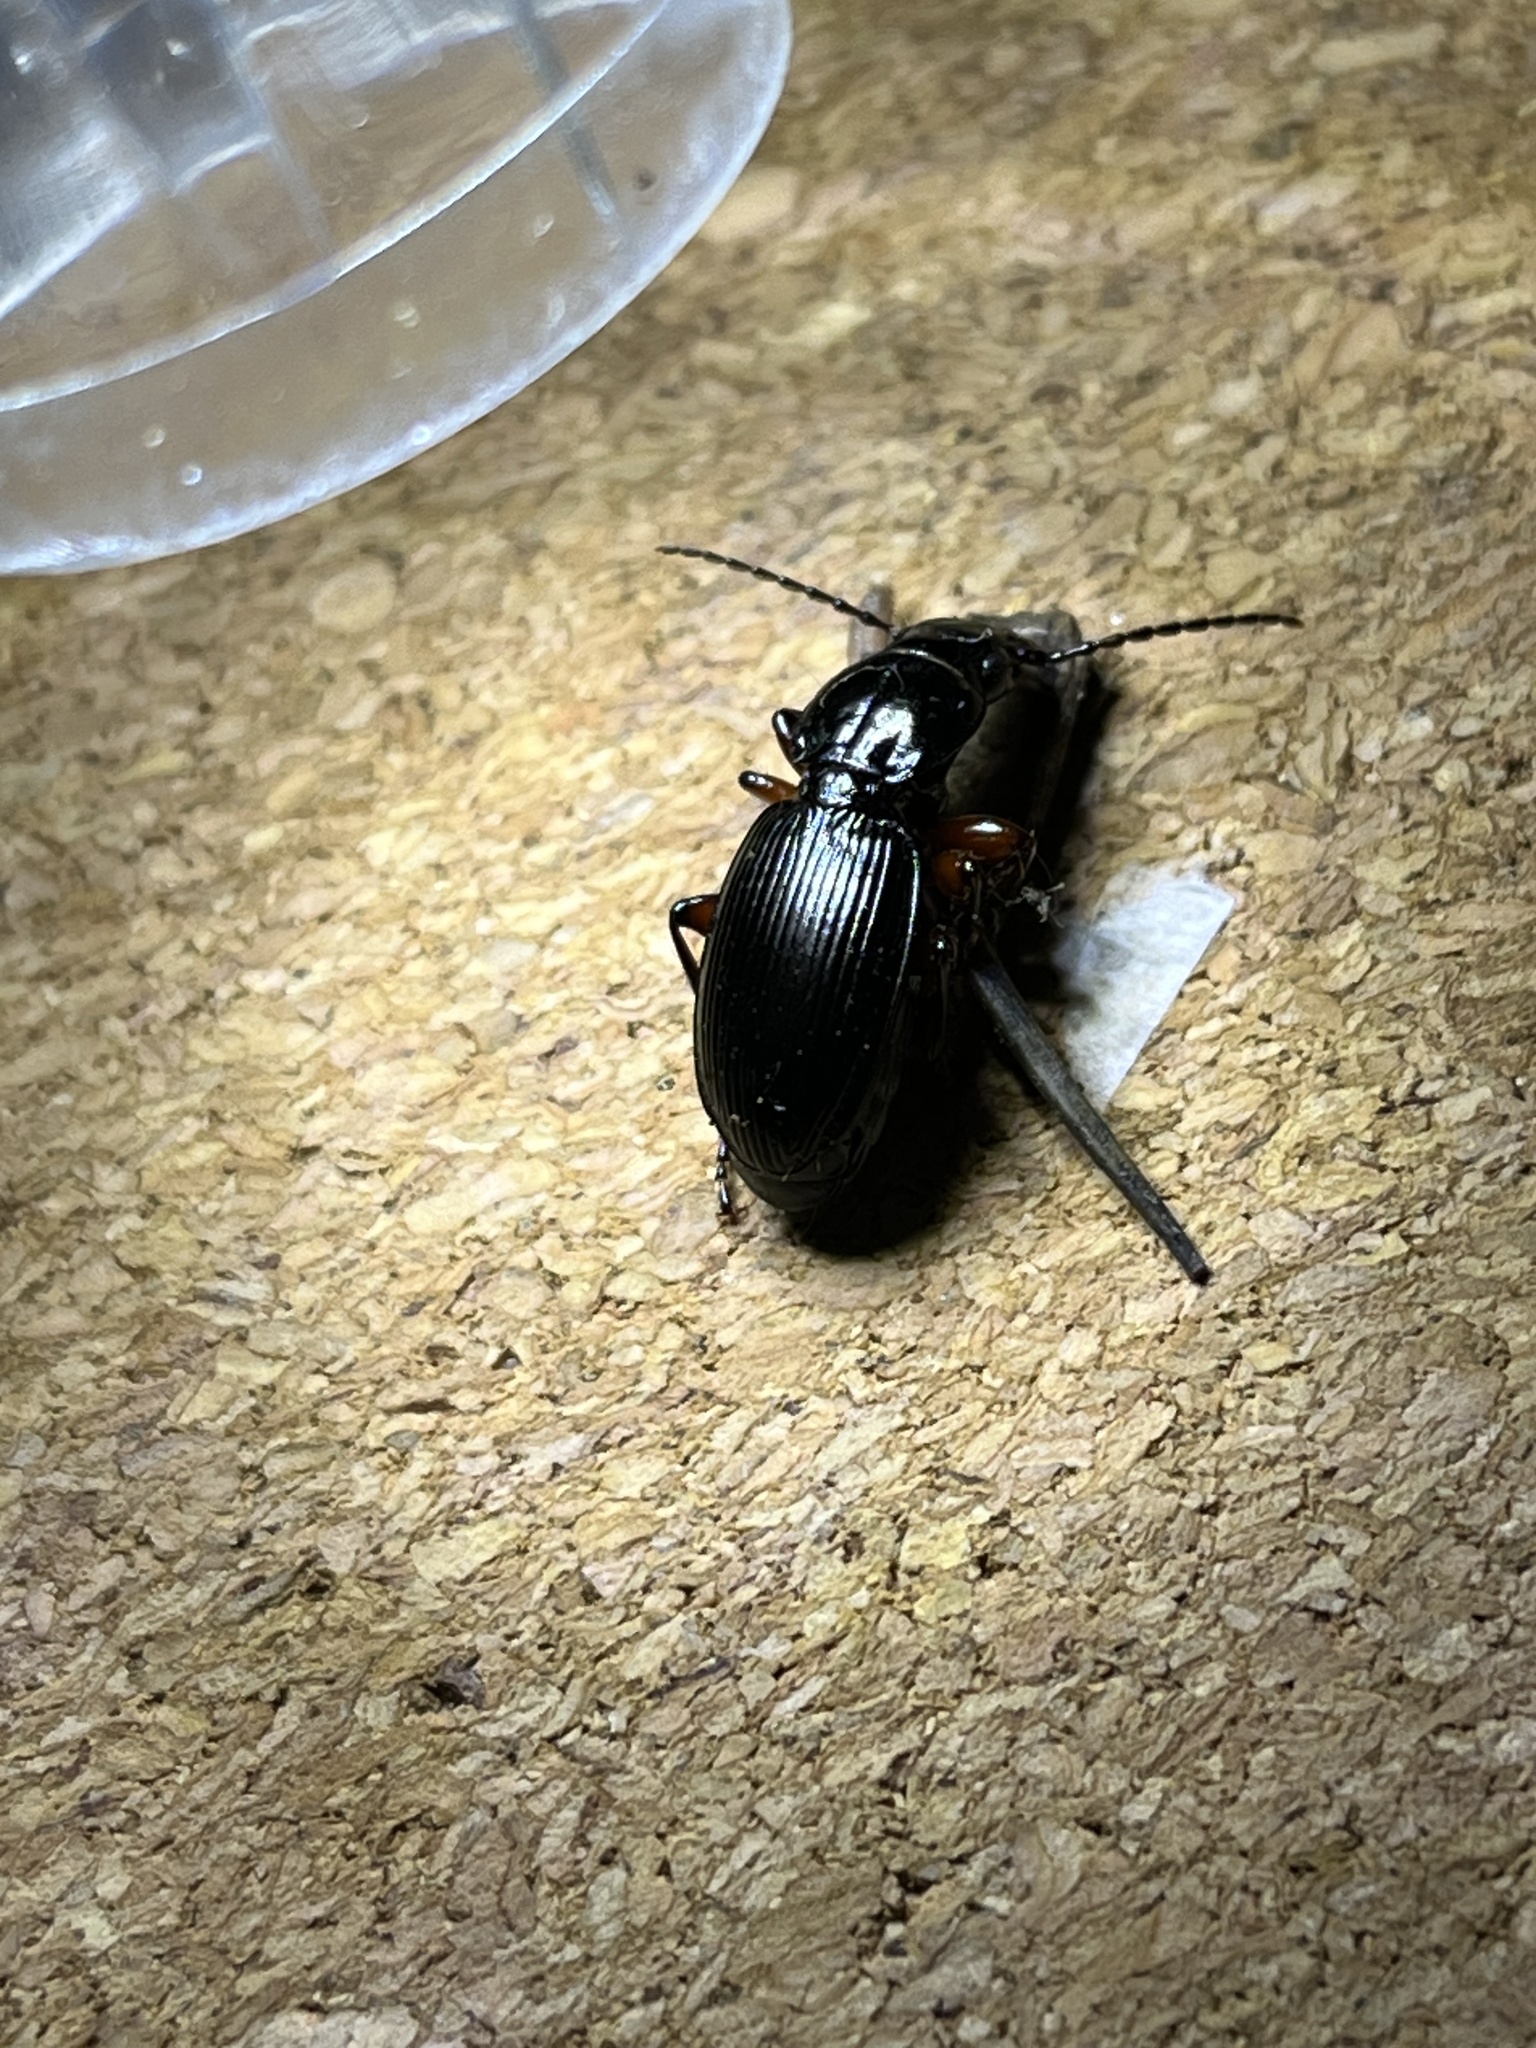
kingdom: Animalia
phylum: Arthropoda
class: Insecta
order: Coleoptera
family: Carabidae
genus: Pterostichus
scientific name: Pterostichus madidus
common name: Black clock
